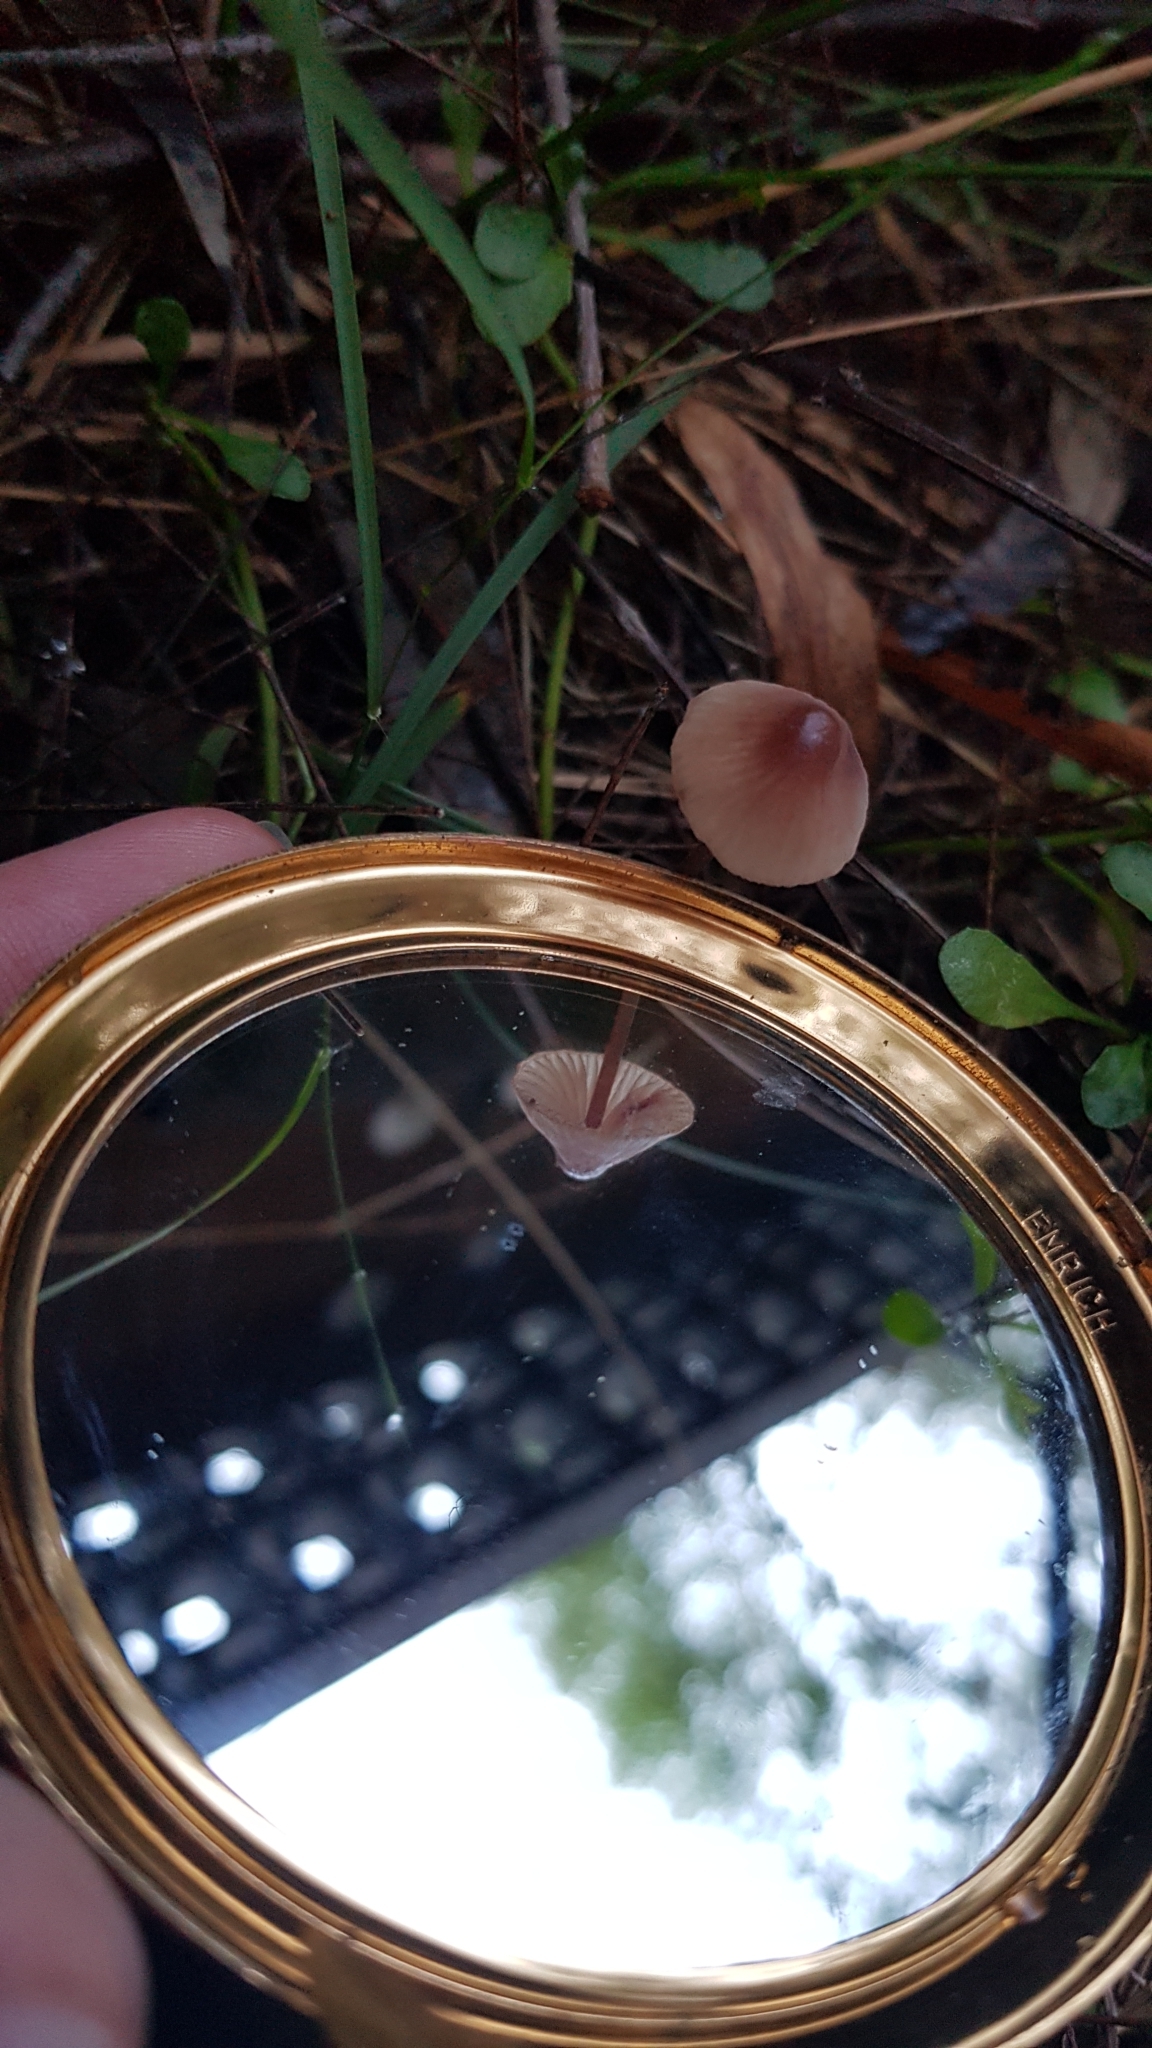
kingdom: Fungi
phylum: Basidiomycota
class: Agaricomycetes
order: Agaricales
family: Mycenaceae
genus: Mycena
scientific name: Mycena kuurkacea
